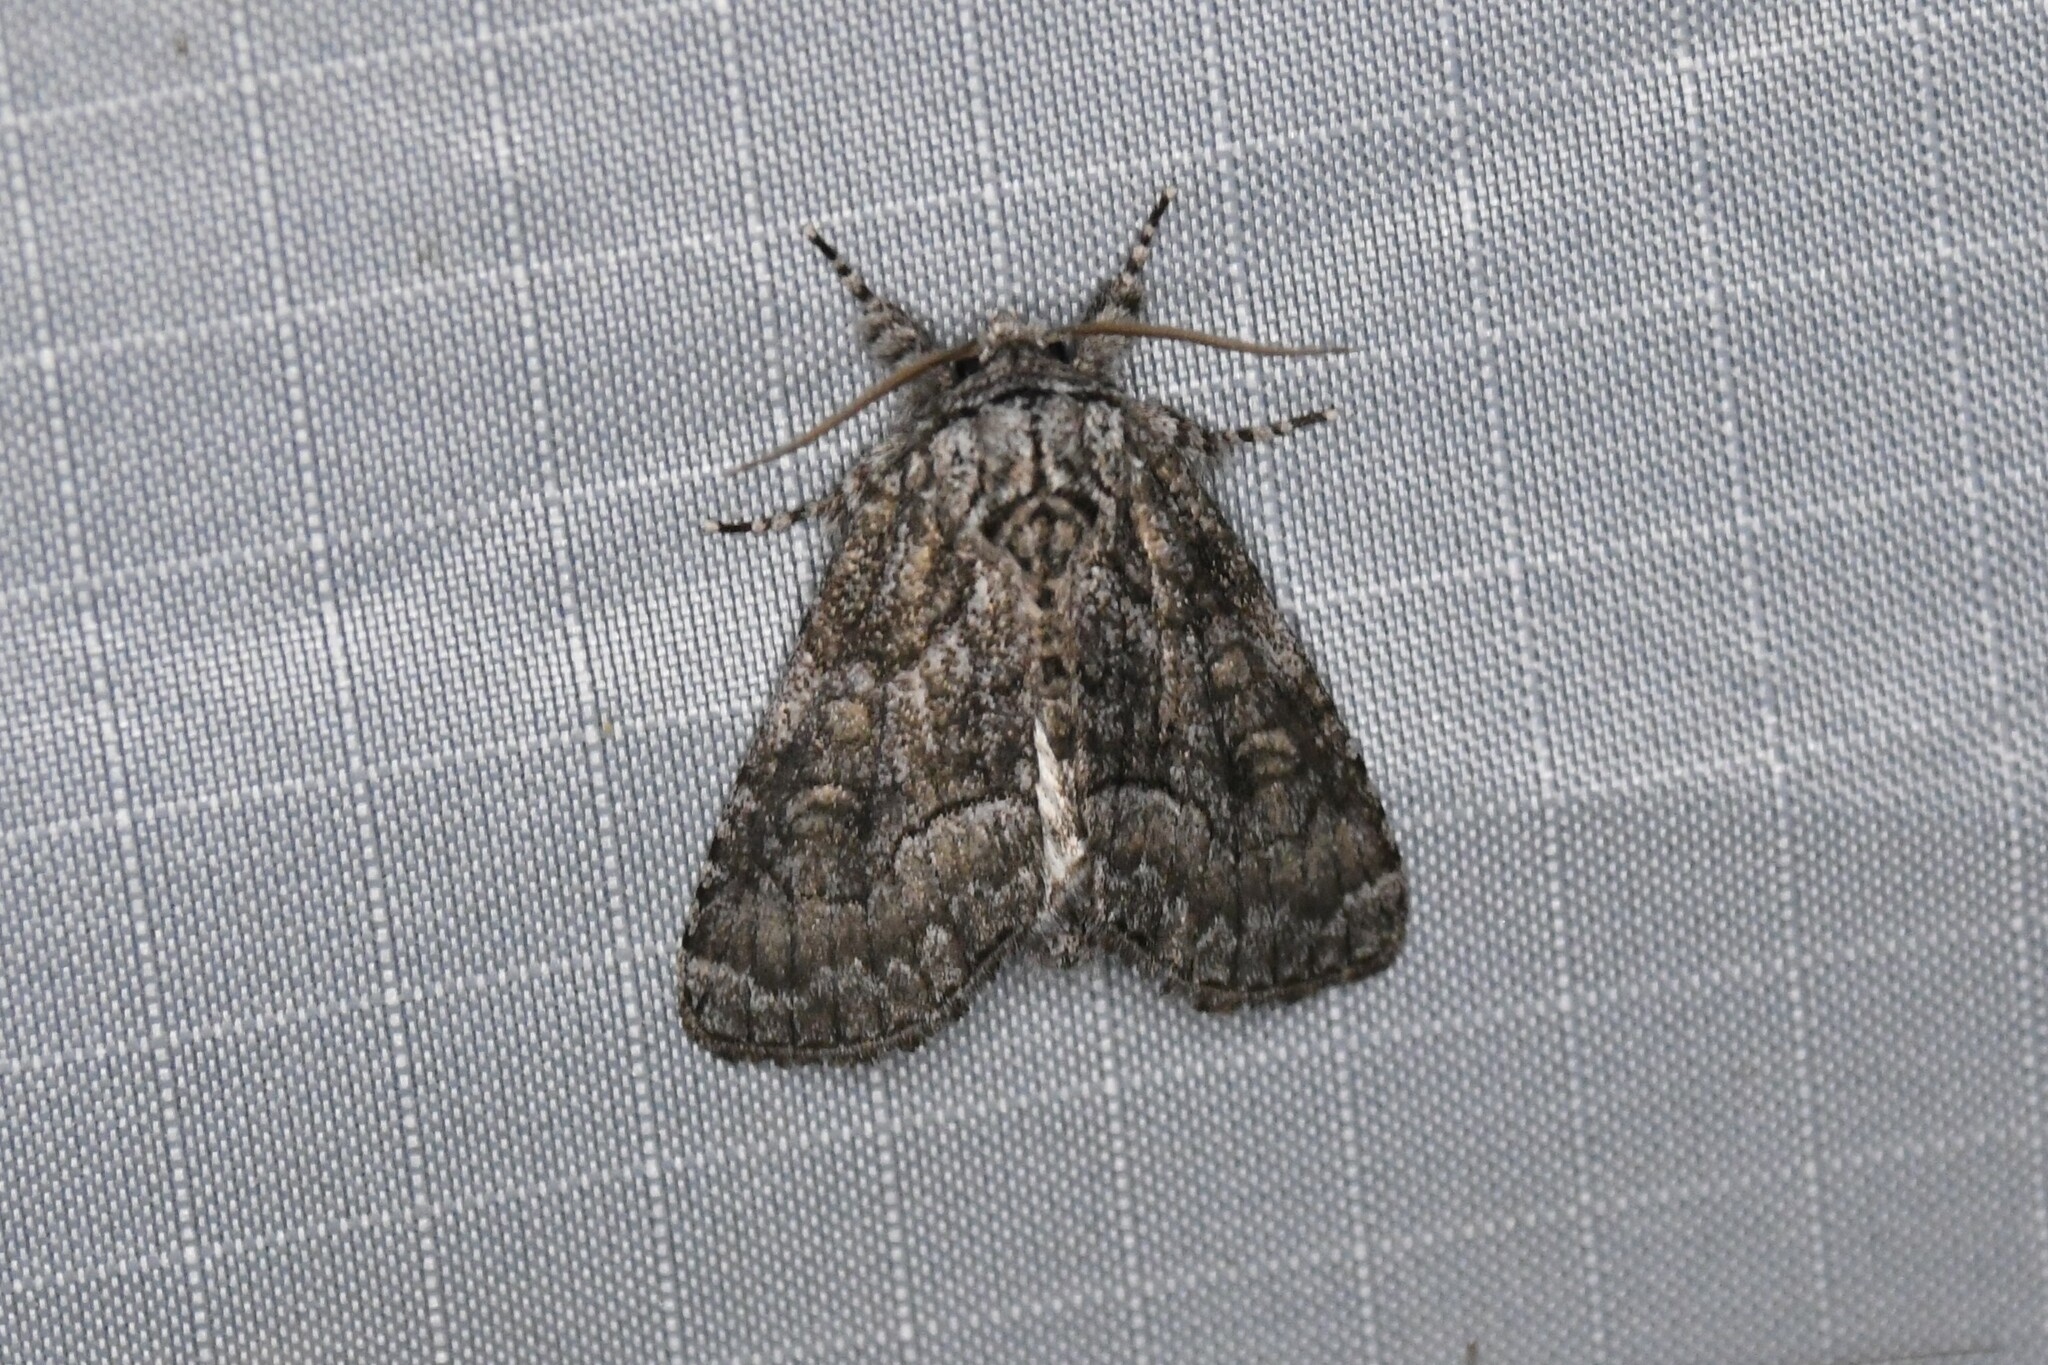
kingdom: Animalia
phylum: Arthropoda
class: Insecta
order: Lepidoptera
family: Noctuidae
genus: Raphia
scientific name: Raphia frater
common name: Brother
